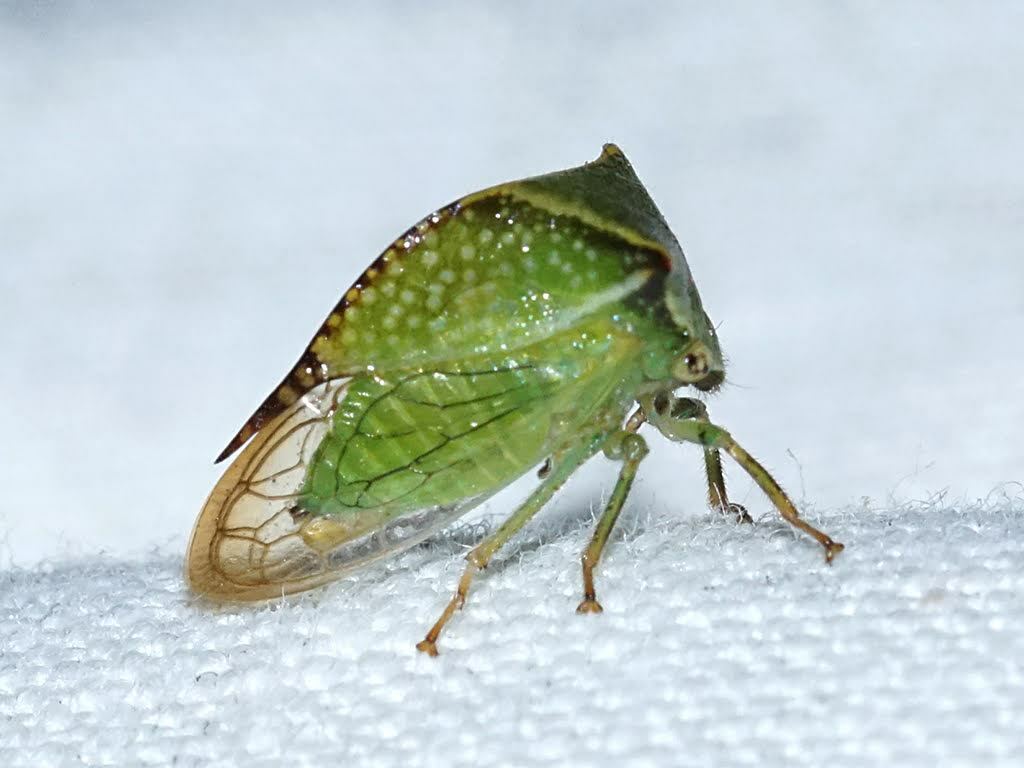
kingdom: Animalia
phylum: Arthropoda
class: Insecta
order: Hemiptera
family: Membracidae
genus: Stictocephala
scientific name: Stictocephala bisonia
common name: American buffalo treehopper
